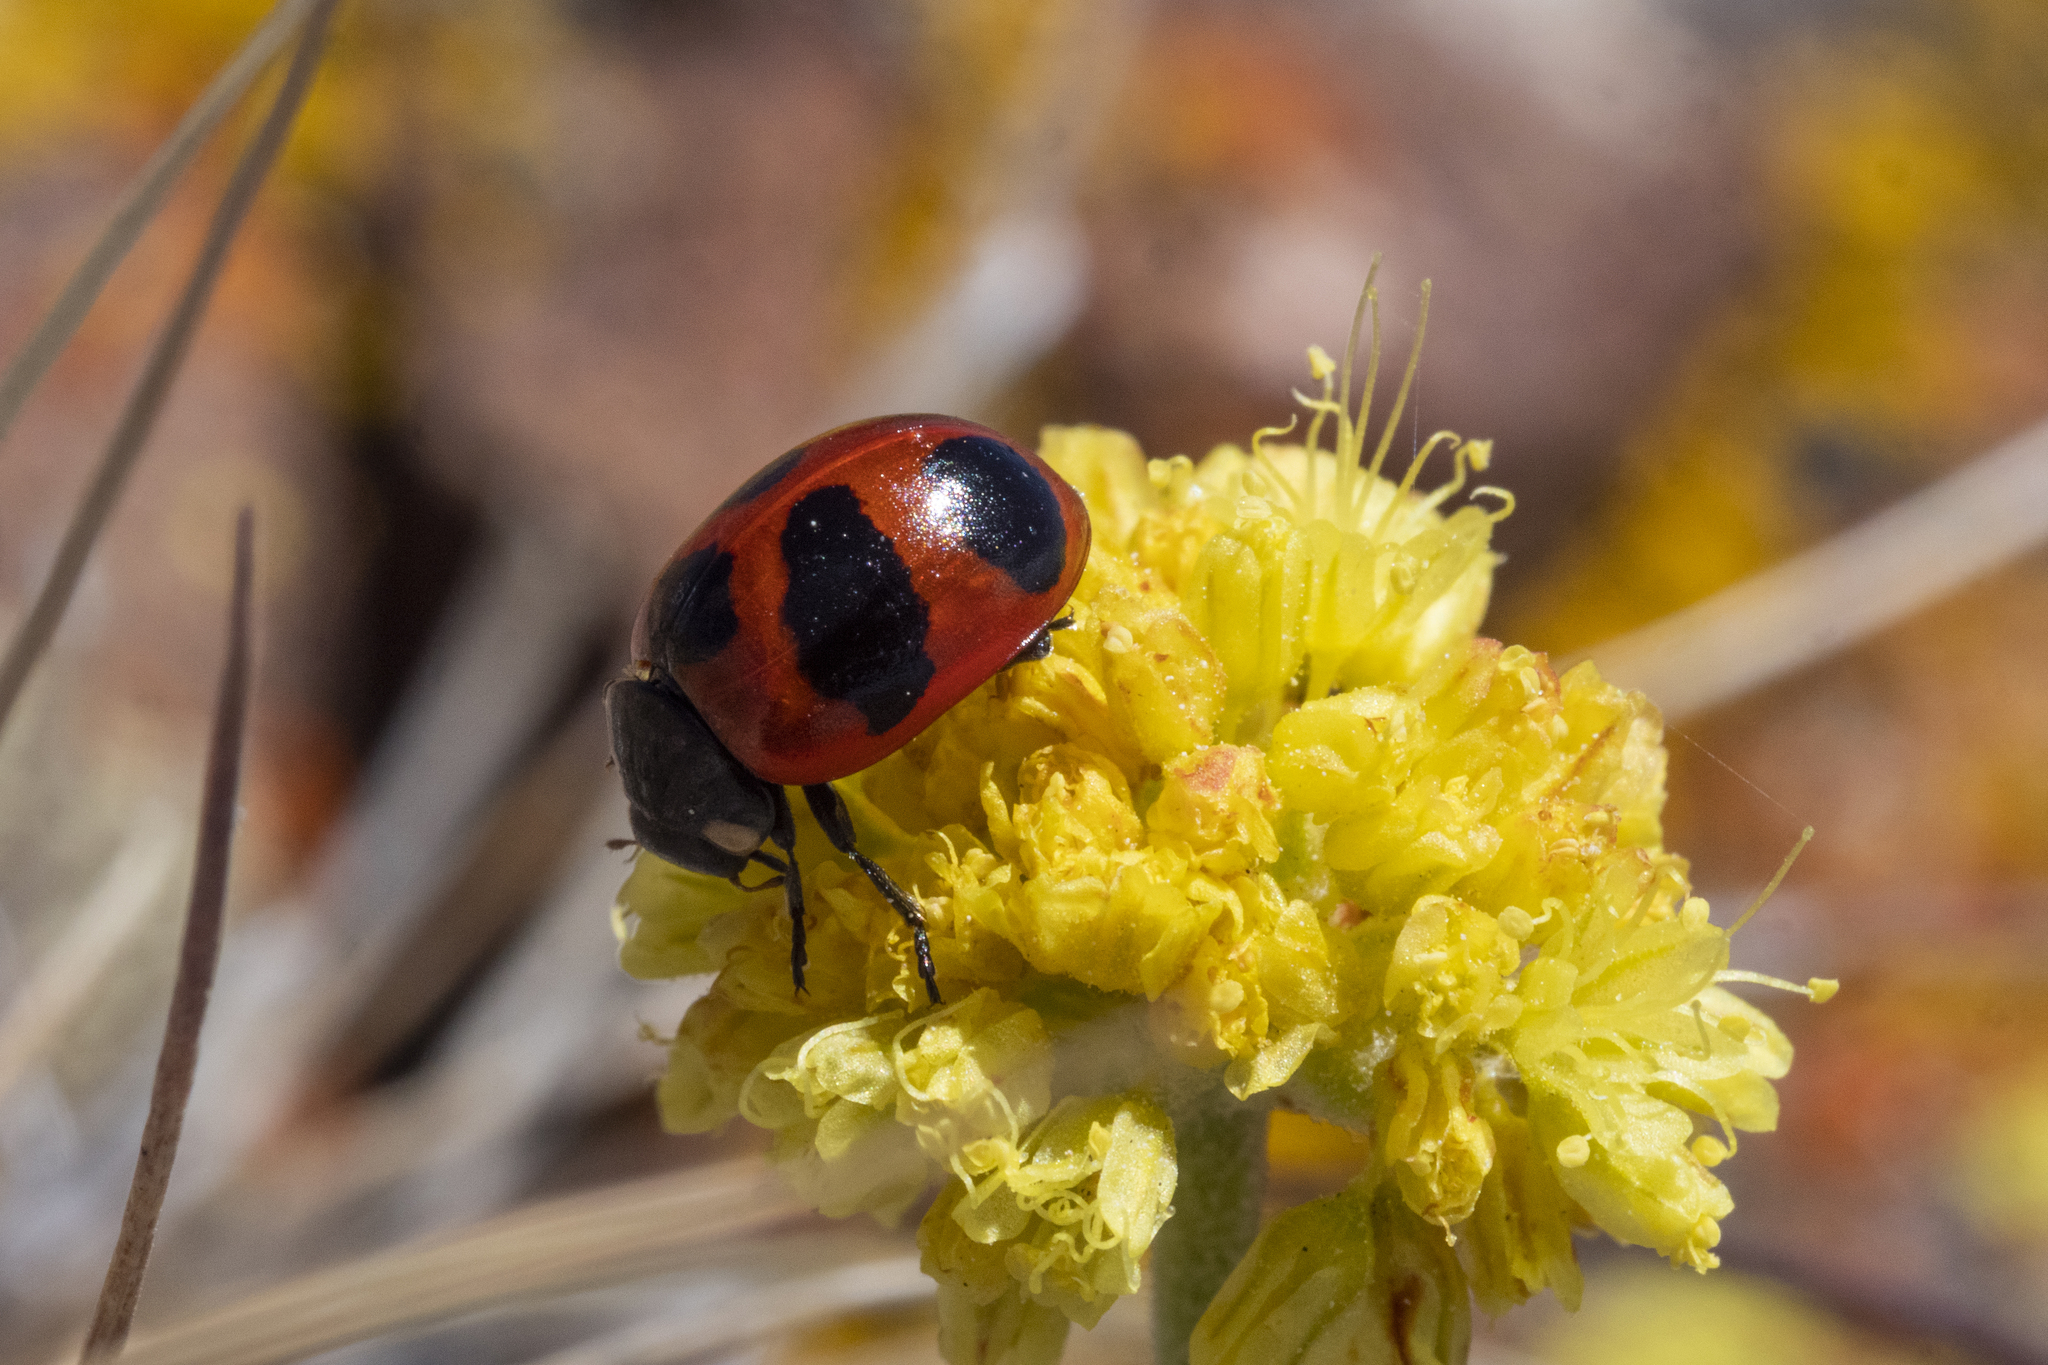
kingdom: Animalia
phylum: Arthropoda
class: Insecta
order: Coleoptera
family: Coccinellidae
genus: Coccinella
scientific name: Coccinella monticola
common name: Mountain lady beetle
